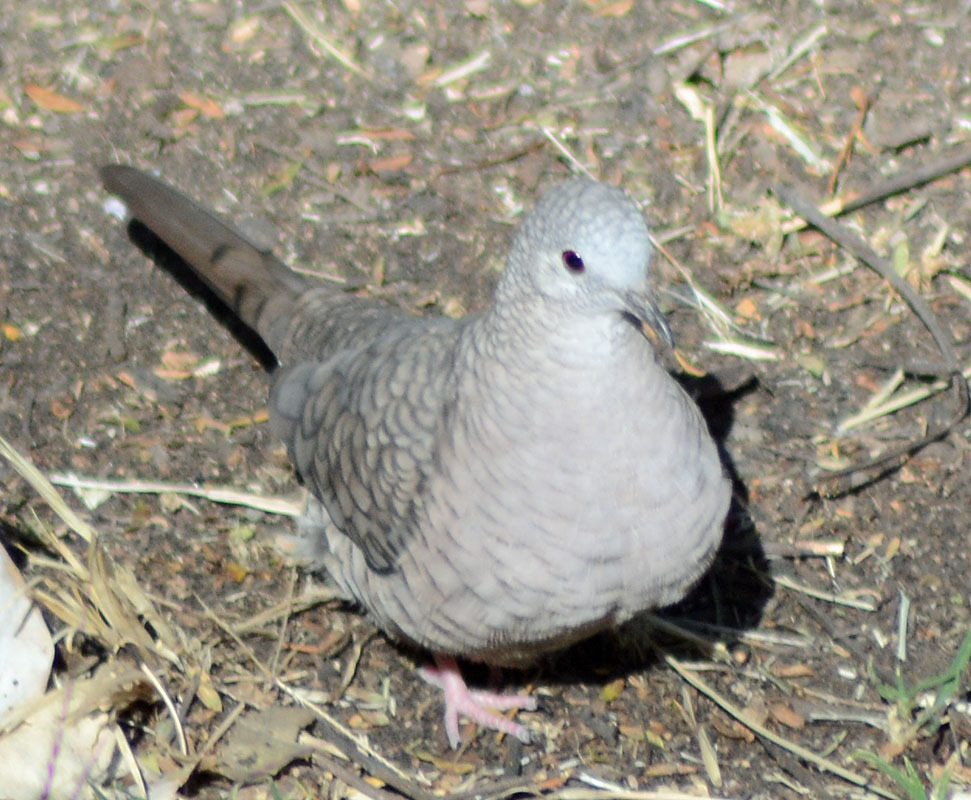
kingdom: Animalia
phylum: Chordata
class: Aves
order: Columbiformes
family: Columbidae
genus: Columbina
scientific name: Columbina inca
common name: Inca dove
